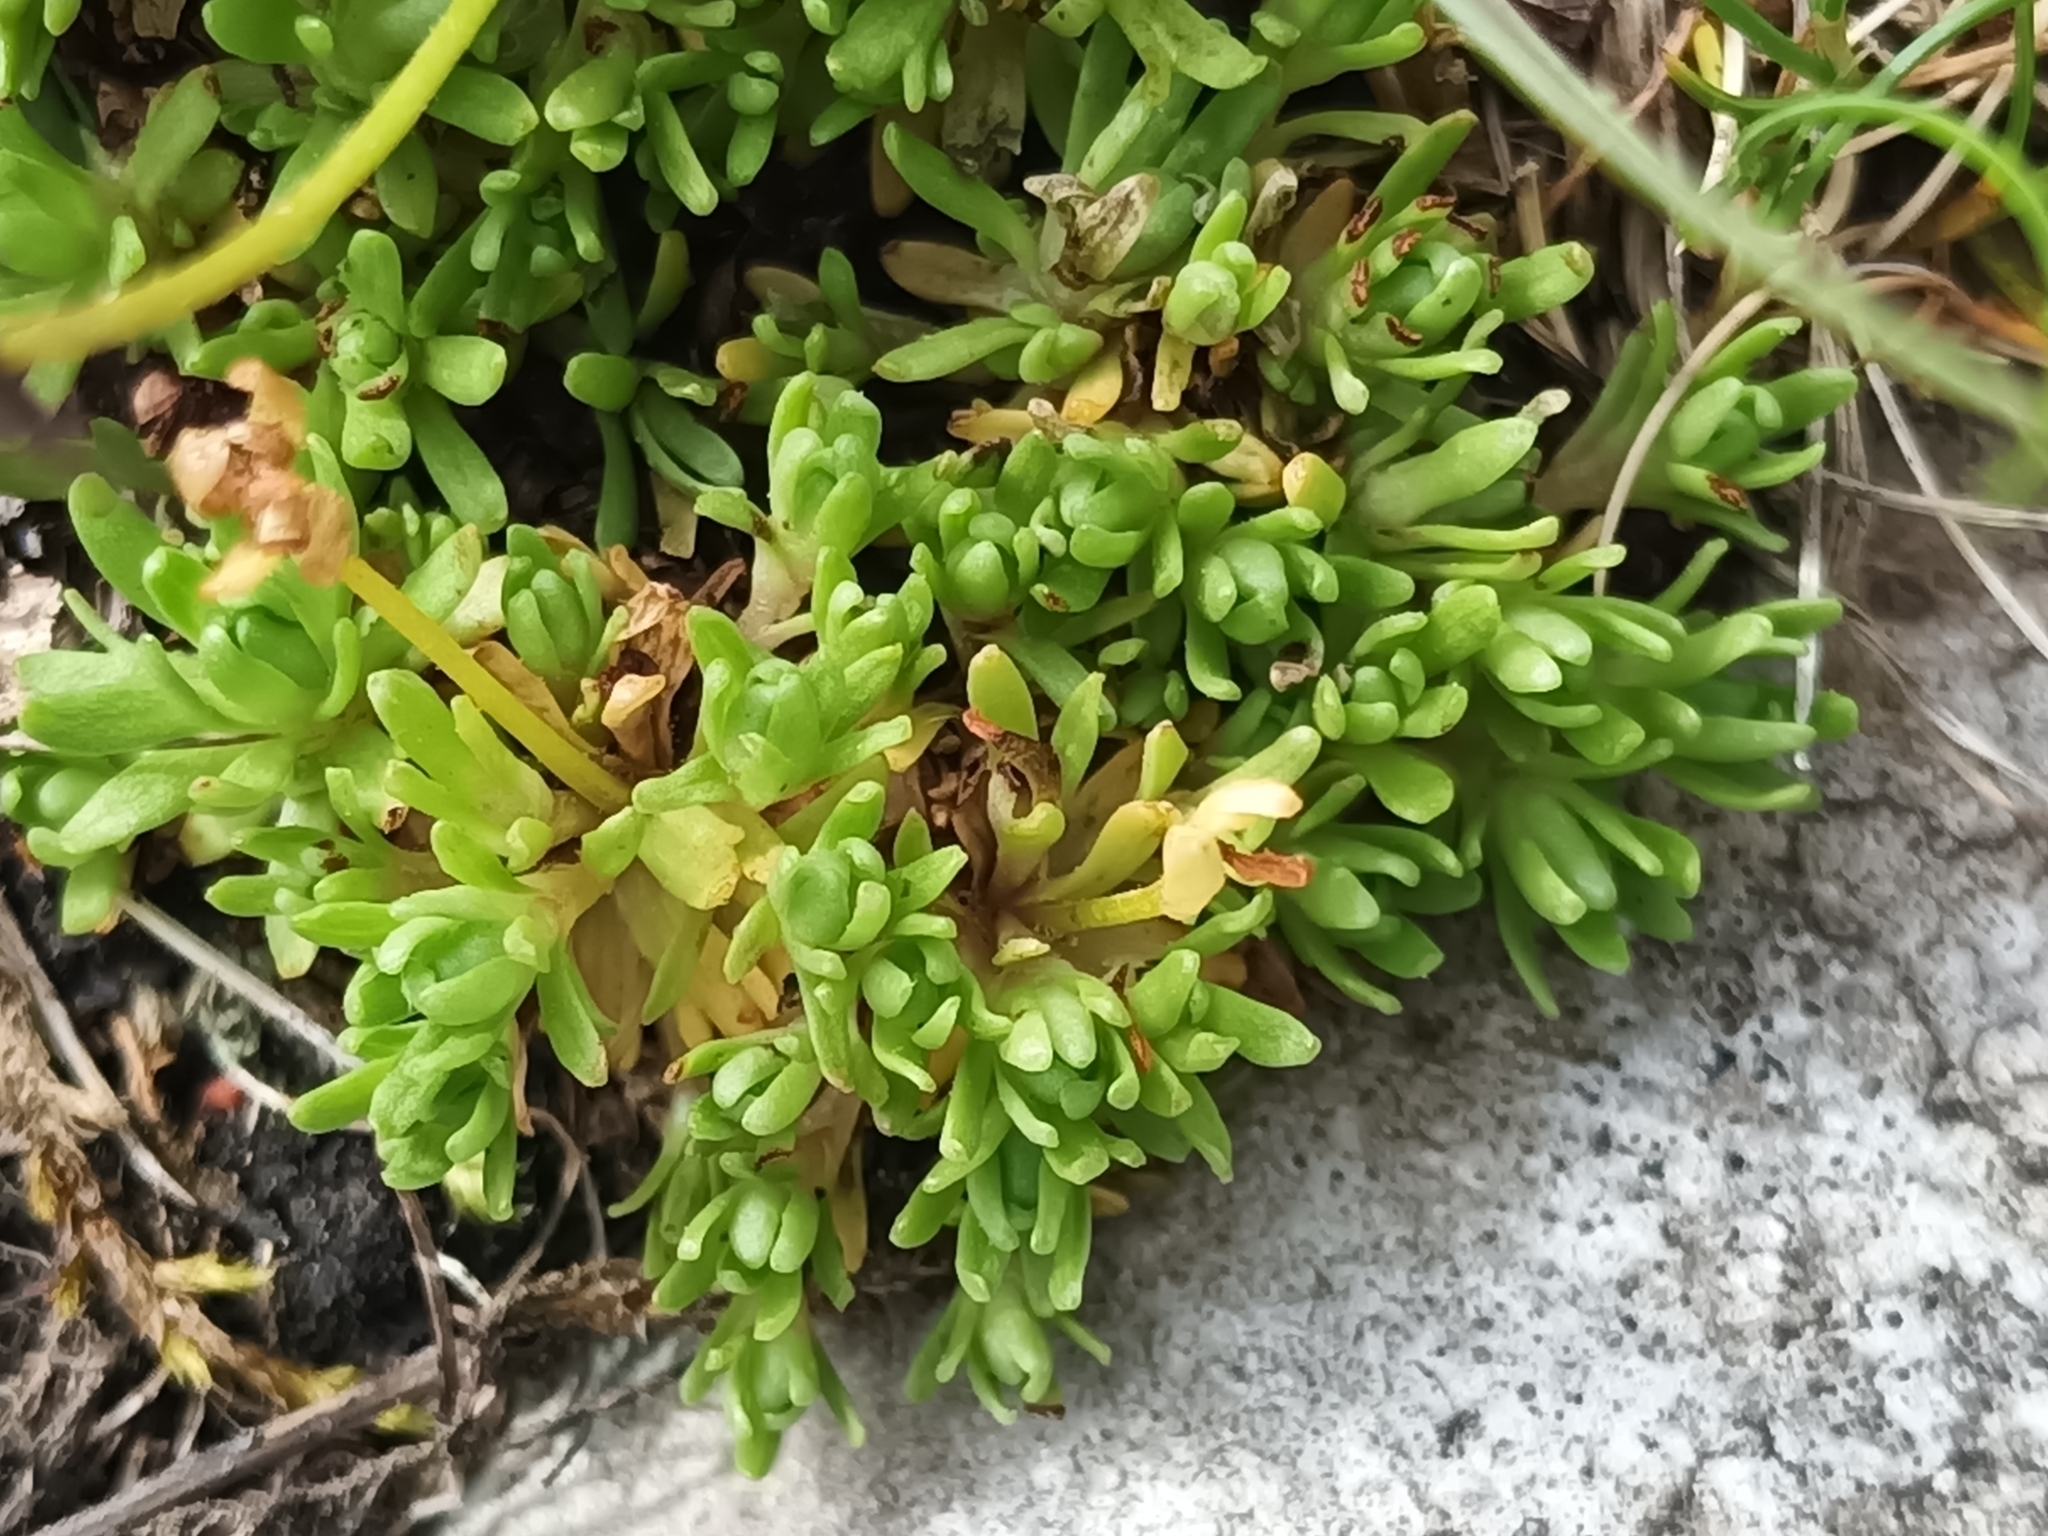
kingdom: Plantae
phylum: Tracheophyta
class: Magnoliopsida
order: Saxifragales
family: Saxifragaceae
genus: Saxifraga
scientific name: Saxifraga moschata
